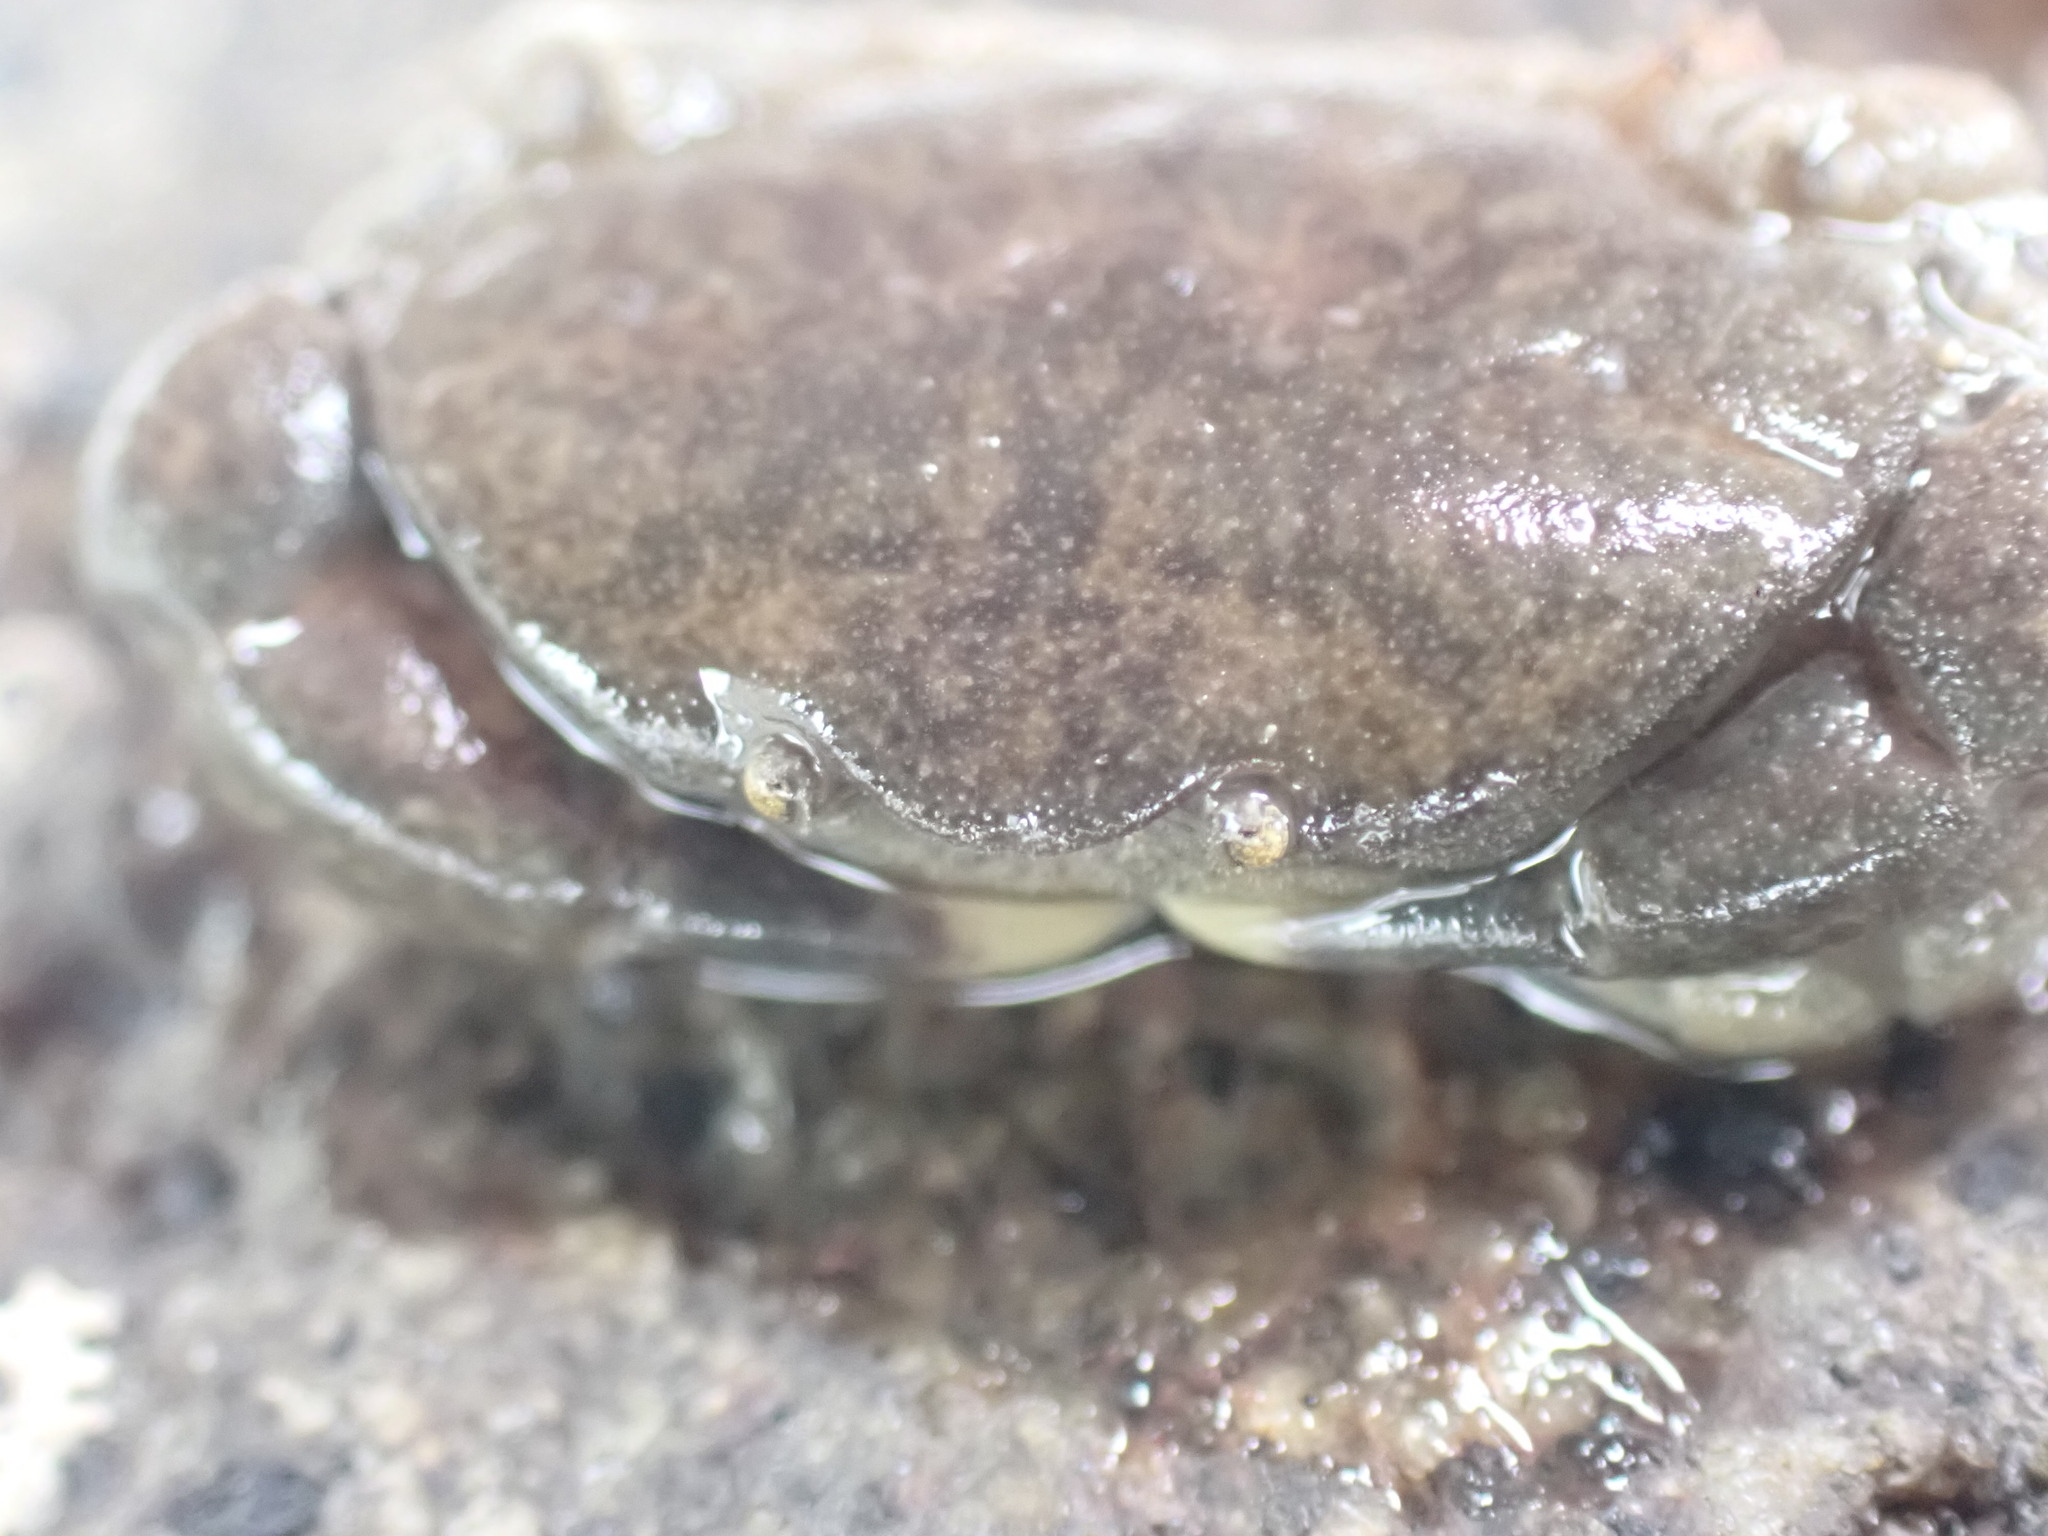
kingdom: Animalia
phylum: Arthropoda
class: Malacostraca
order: Decapoda
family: Heteroziidae
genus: Heterozius
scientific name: Heterozius rotundifrons
